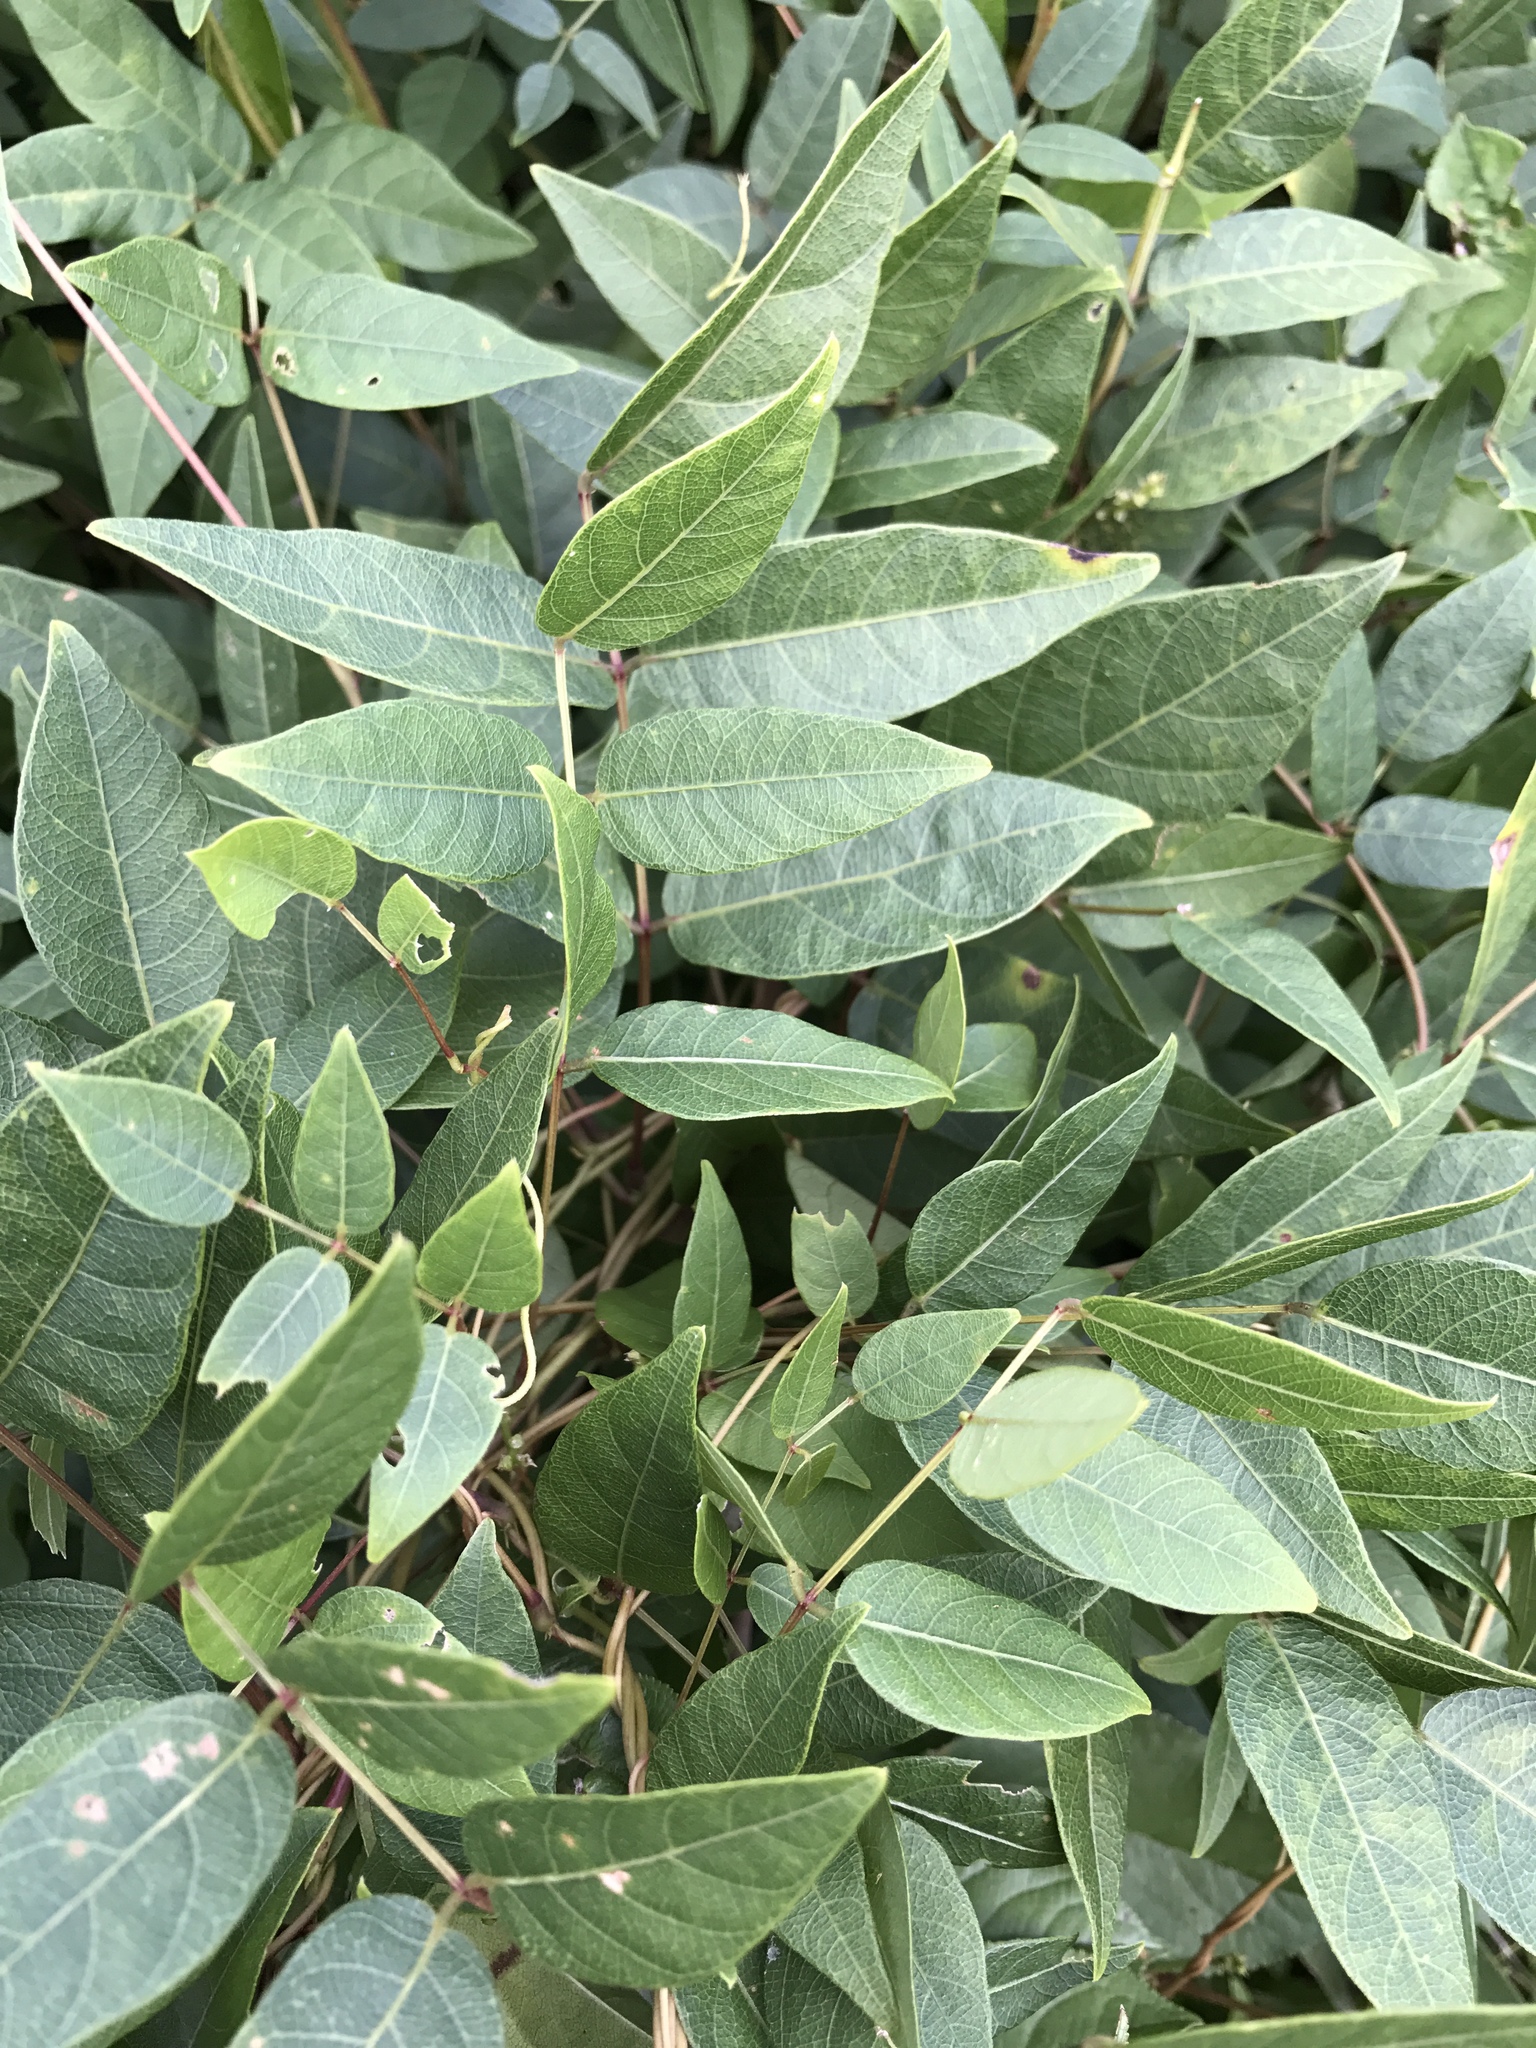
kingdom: Plantae
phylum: Tracheophyta
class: Magnoliopsida
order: Fabales
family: Fabaceae
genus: Apios
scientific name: Apios americana
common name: American potato-bean
